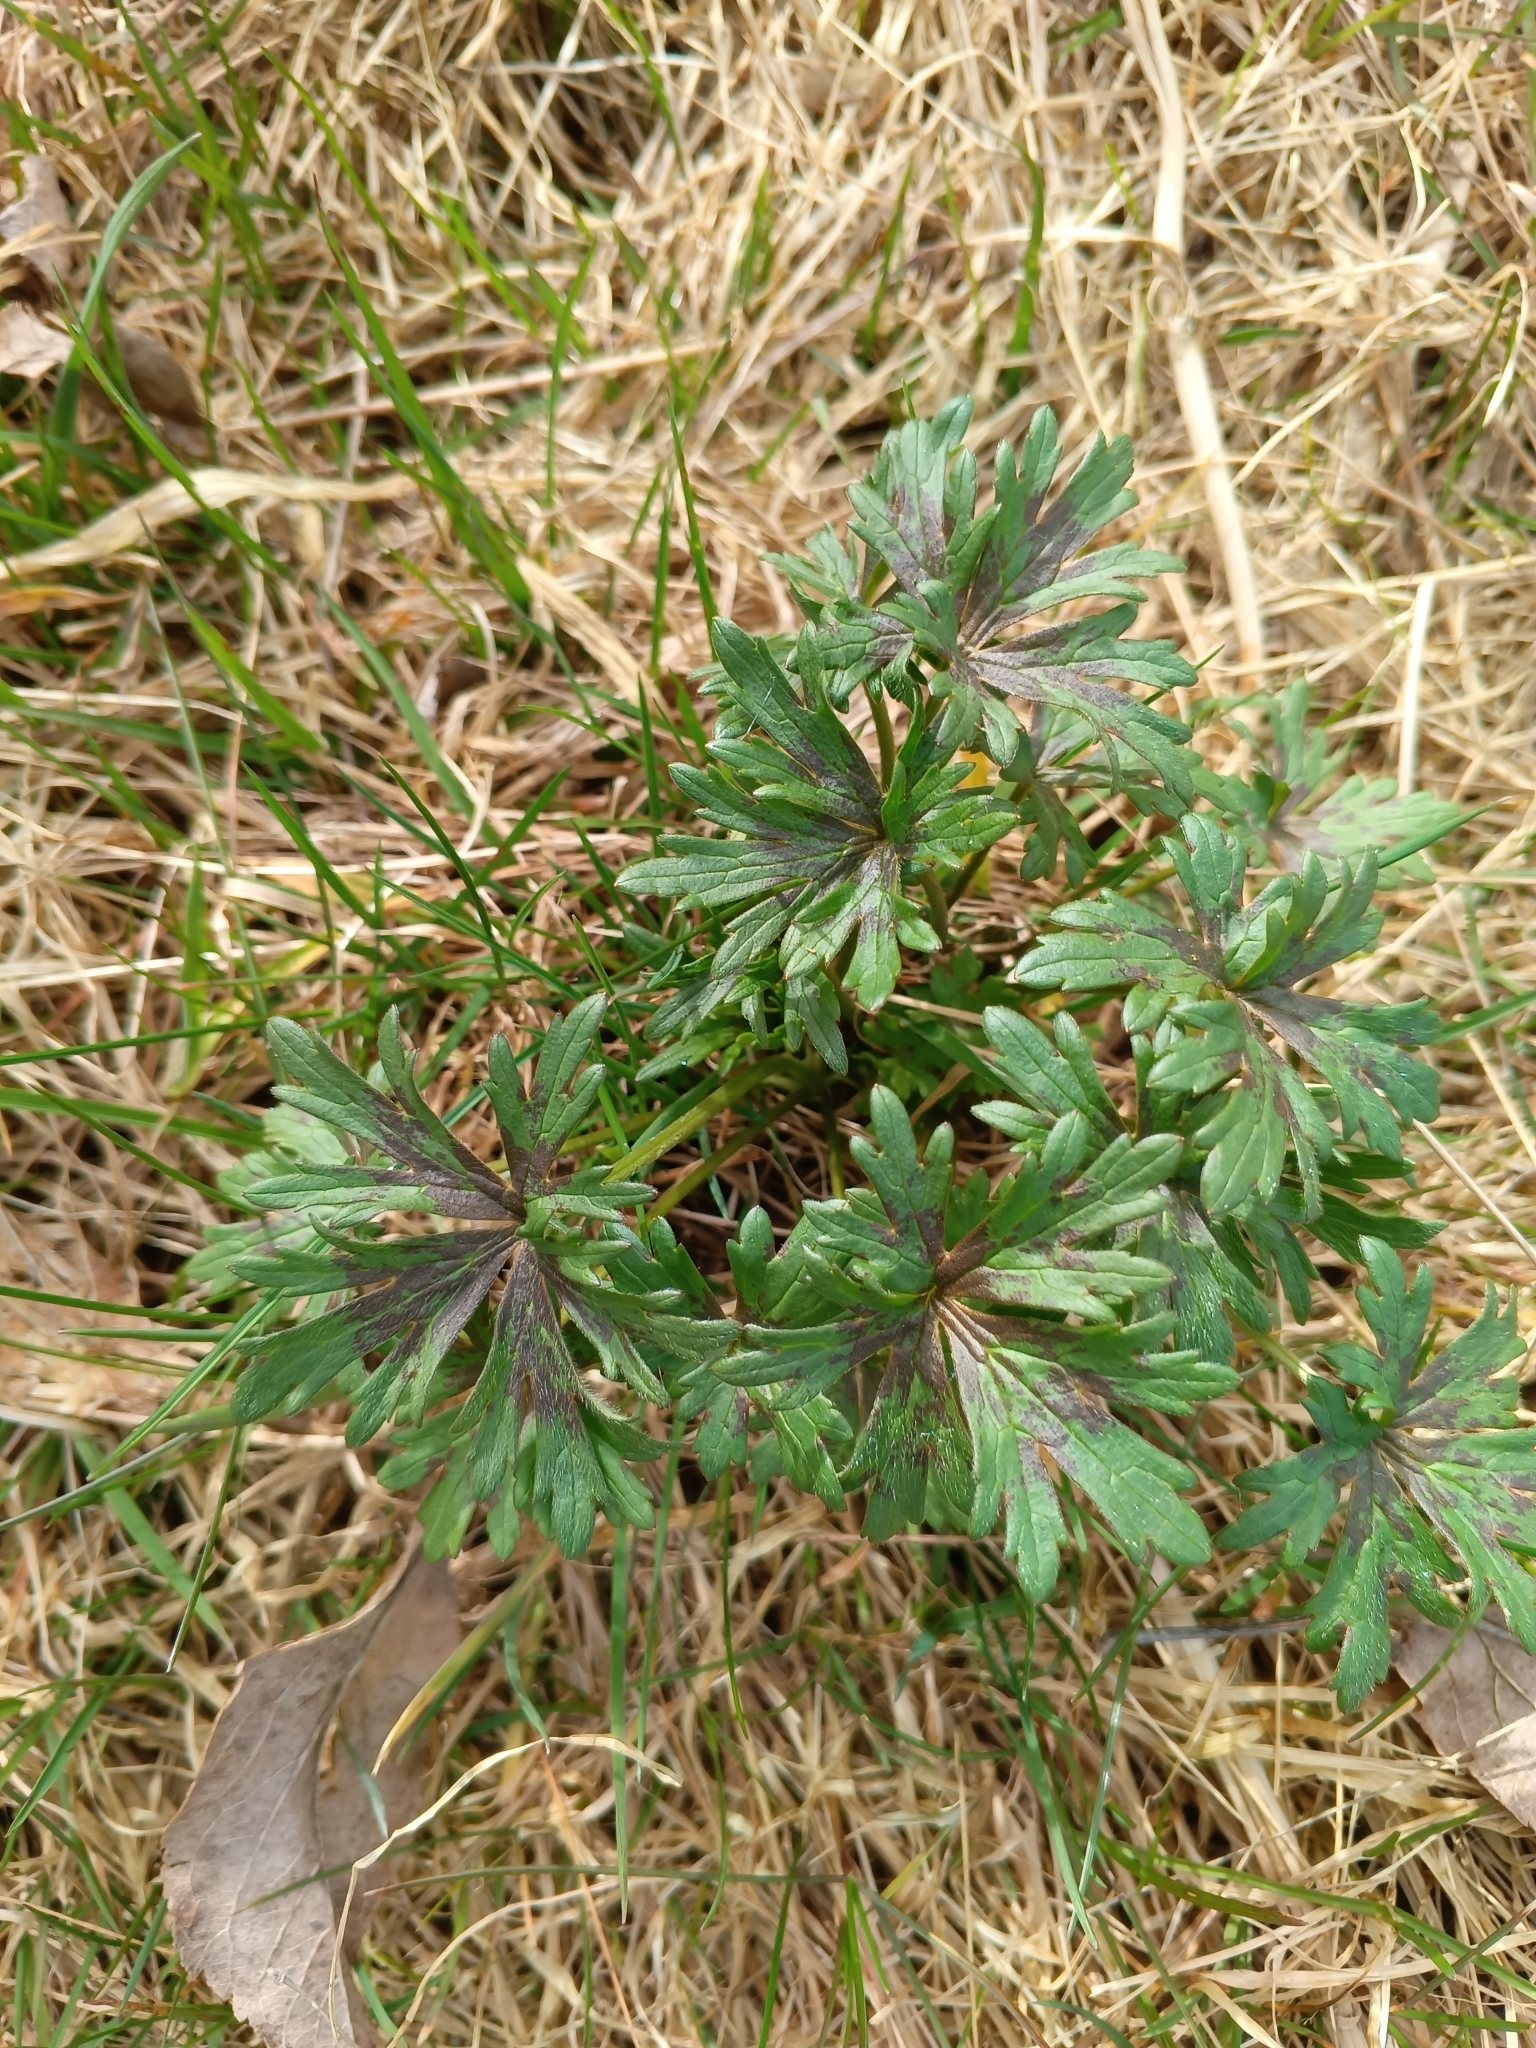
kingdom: Plantae
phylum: Tracheophyta
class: Magnoliopsida
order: Ranunculales
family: Ranunculaceae
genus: Ranunculus
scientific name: Ranunculus acris
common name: Meadow buttercup
